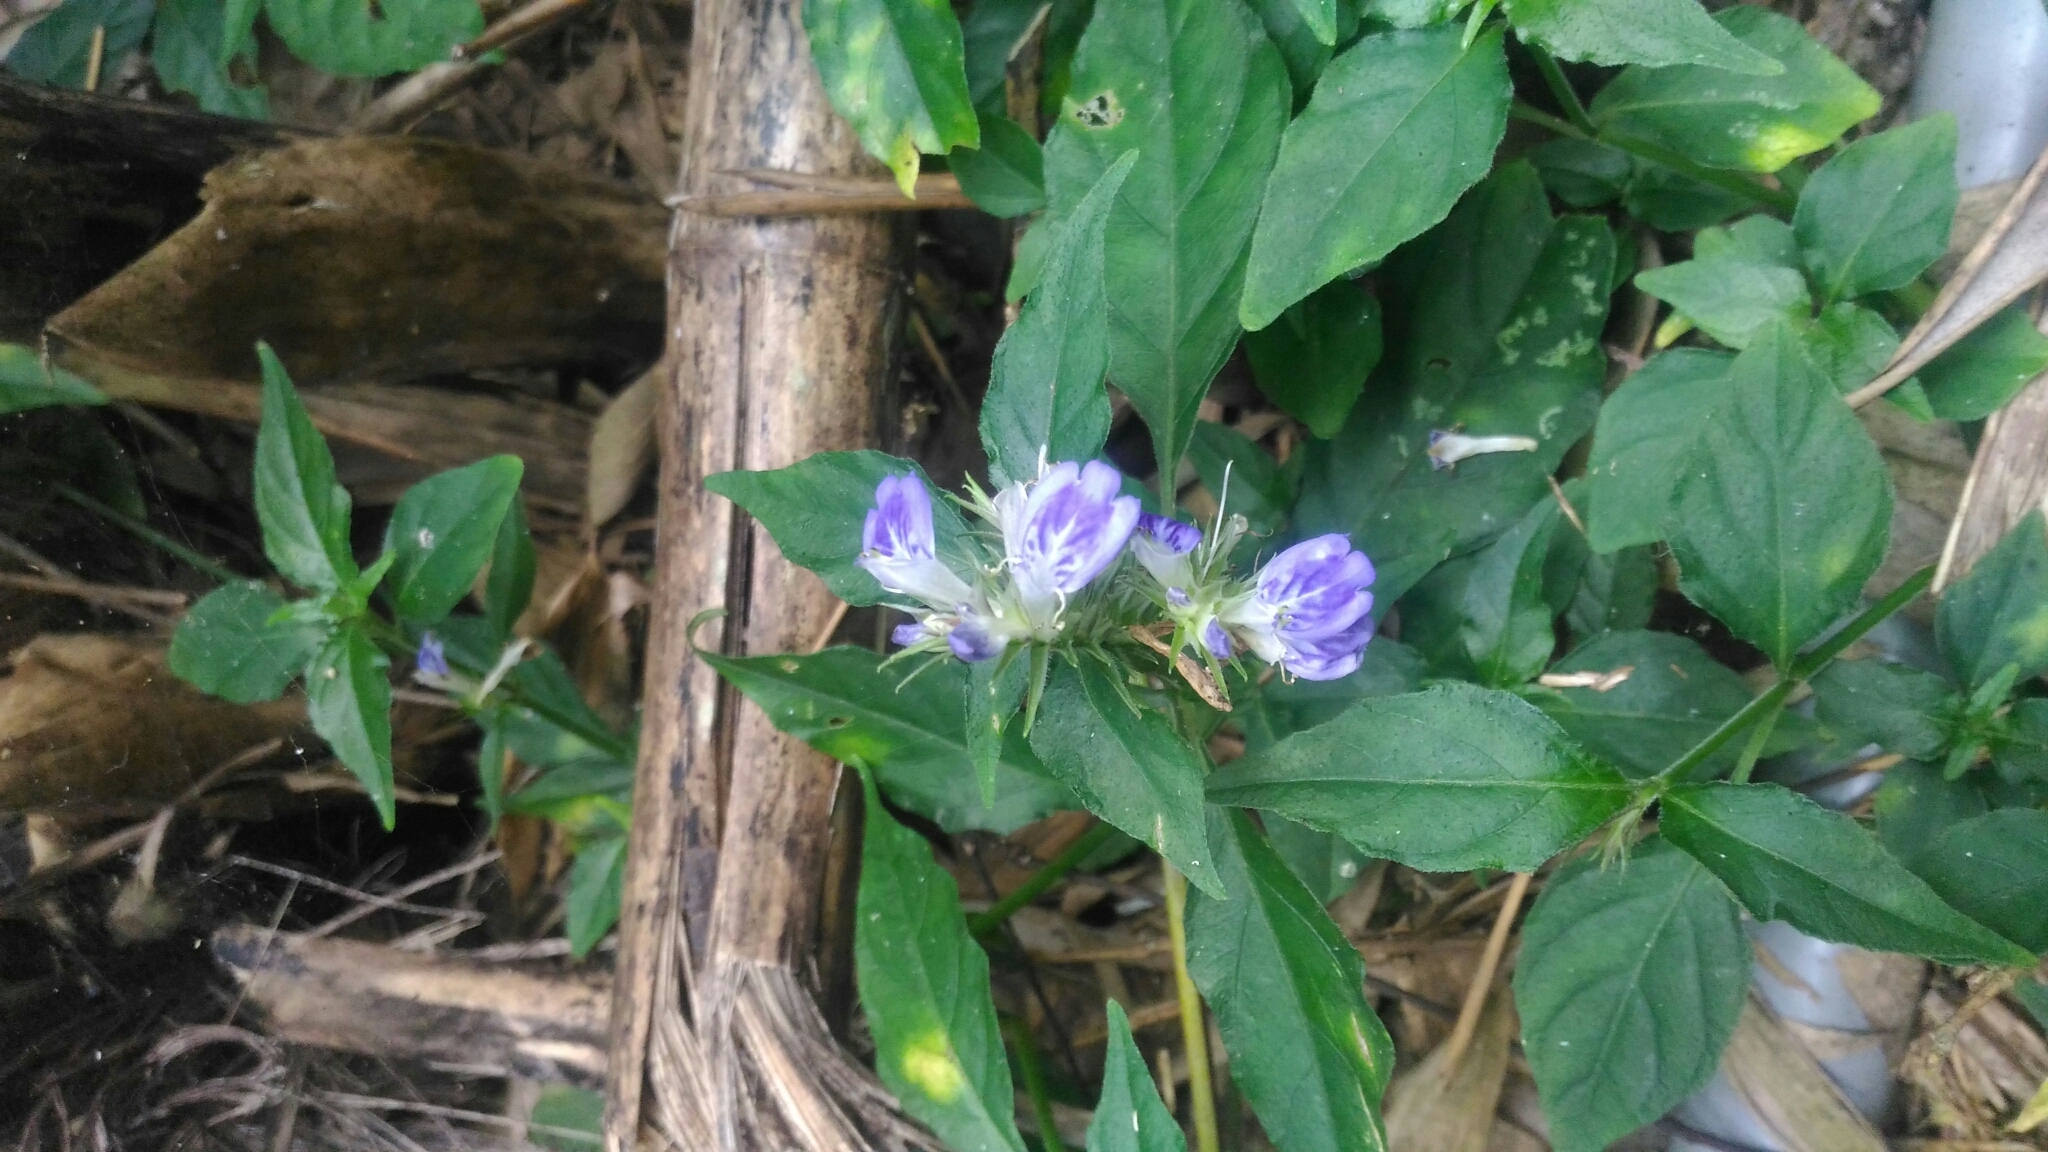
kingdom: Plantae
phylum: Tracheophyta
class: Magnoliopsida
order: Lamiales
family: Acanthaceae
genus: Rungia
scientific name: Rungia taiwanensis
